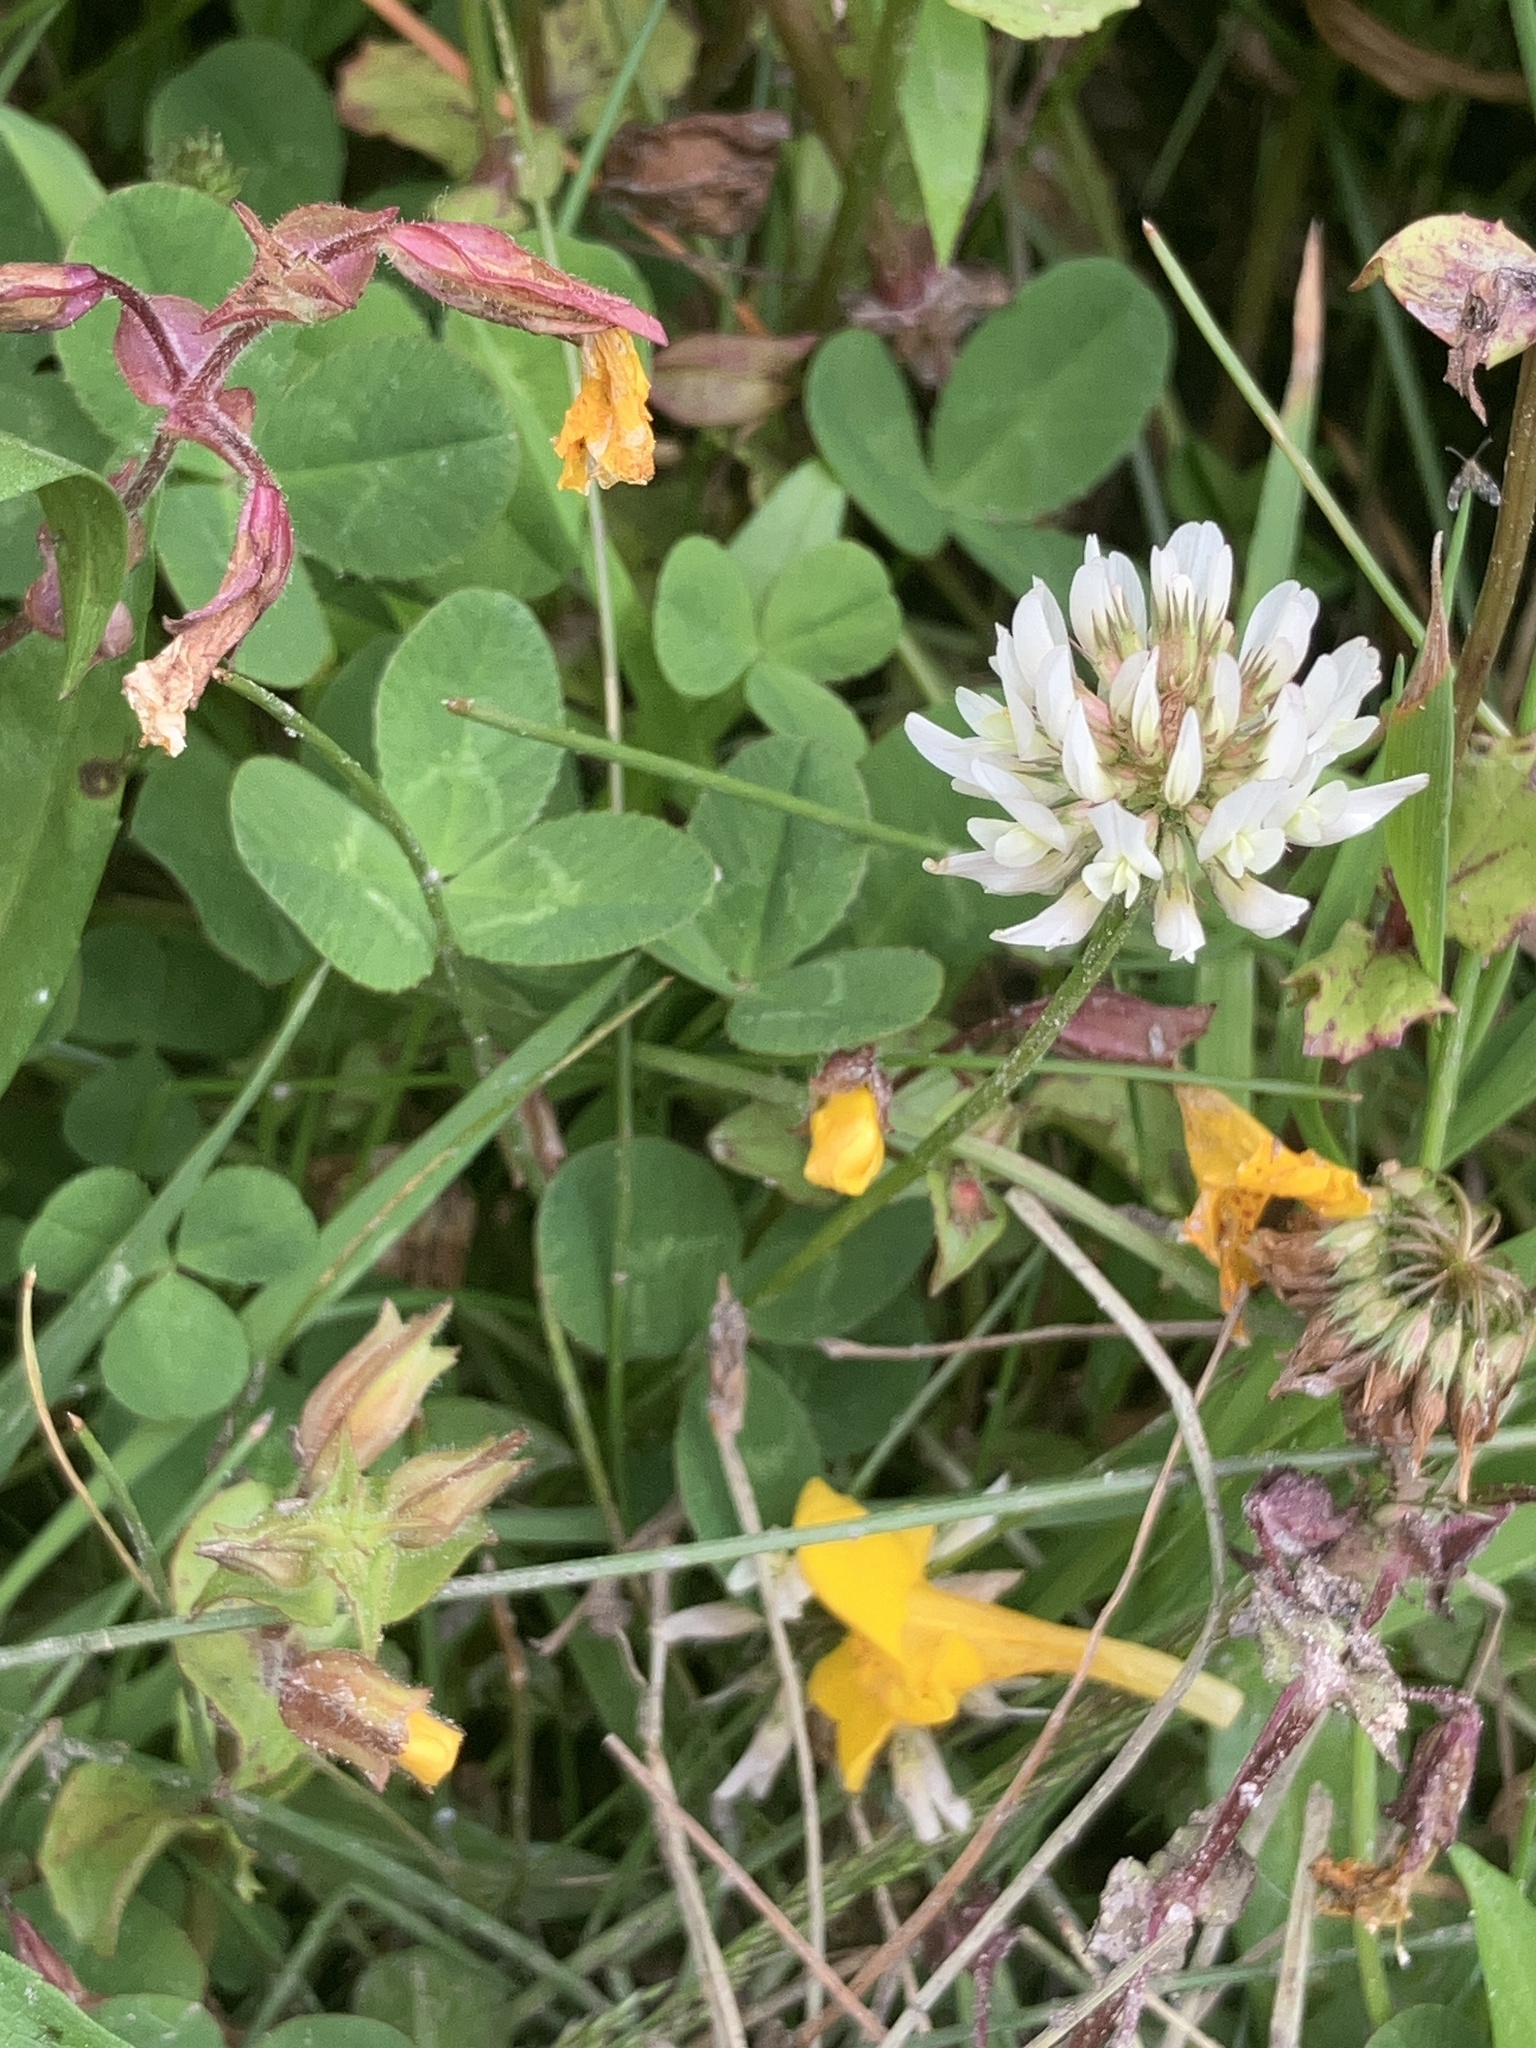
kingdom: Plantae
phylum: Tracheophyta
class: Magnoliopsida
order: Fabales
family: Fabaceae
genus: Trifolium
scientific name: Trifolium repens
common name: White clover
